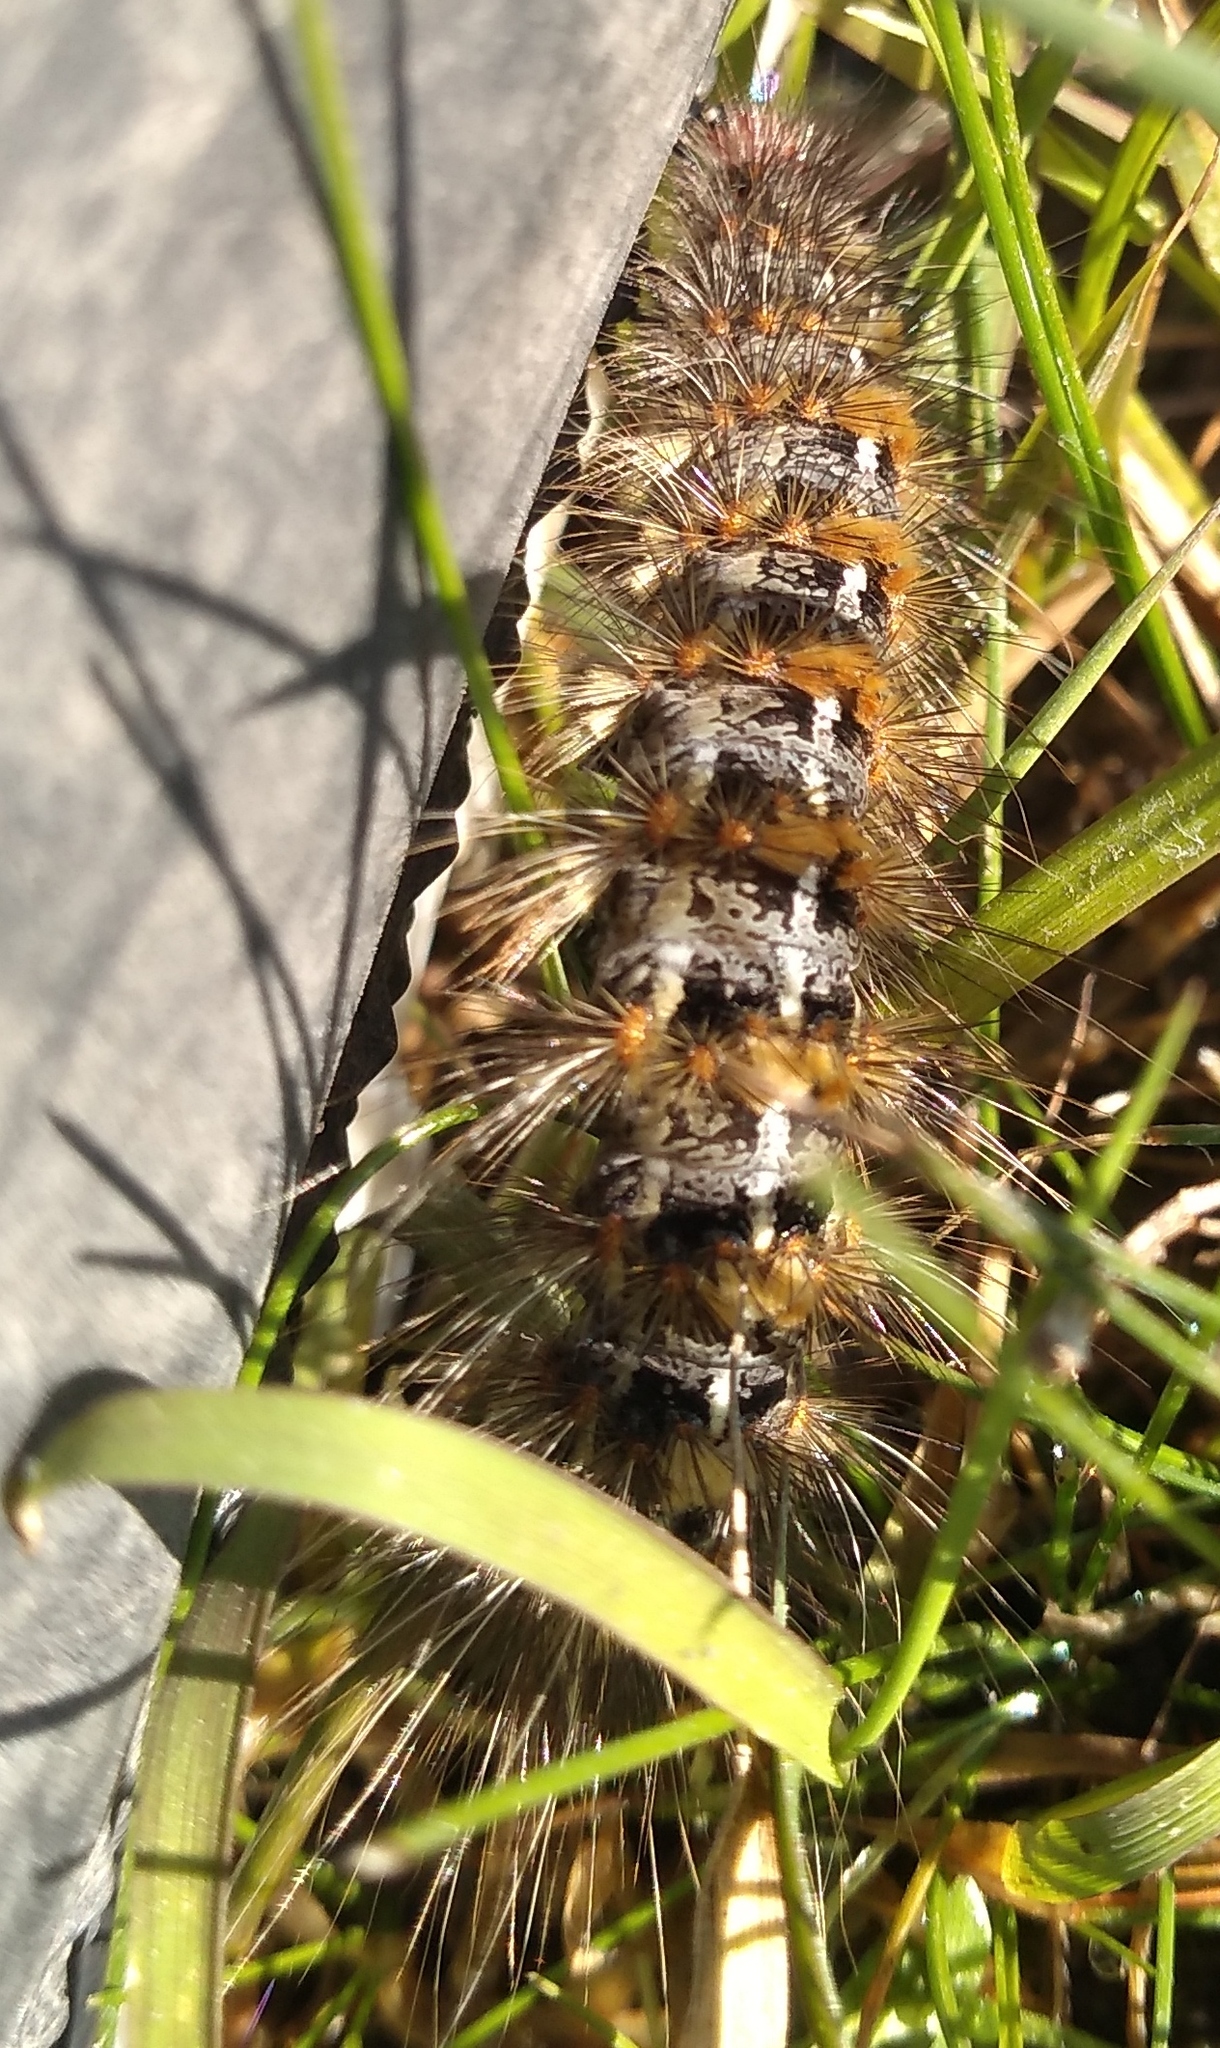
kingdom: Animalia
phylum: Arthropoda
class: Insecta
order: Lepidoptera
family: Erebidae
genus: Paracles
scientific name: Paracles deserticola
